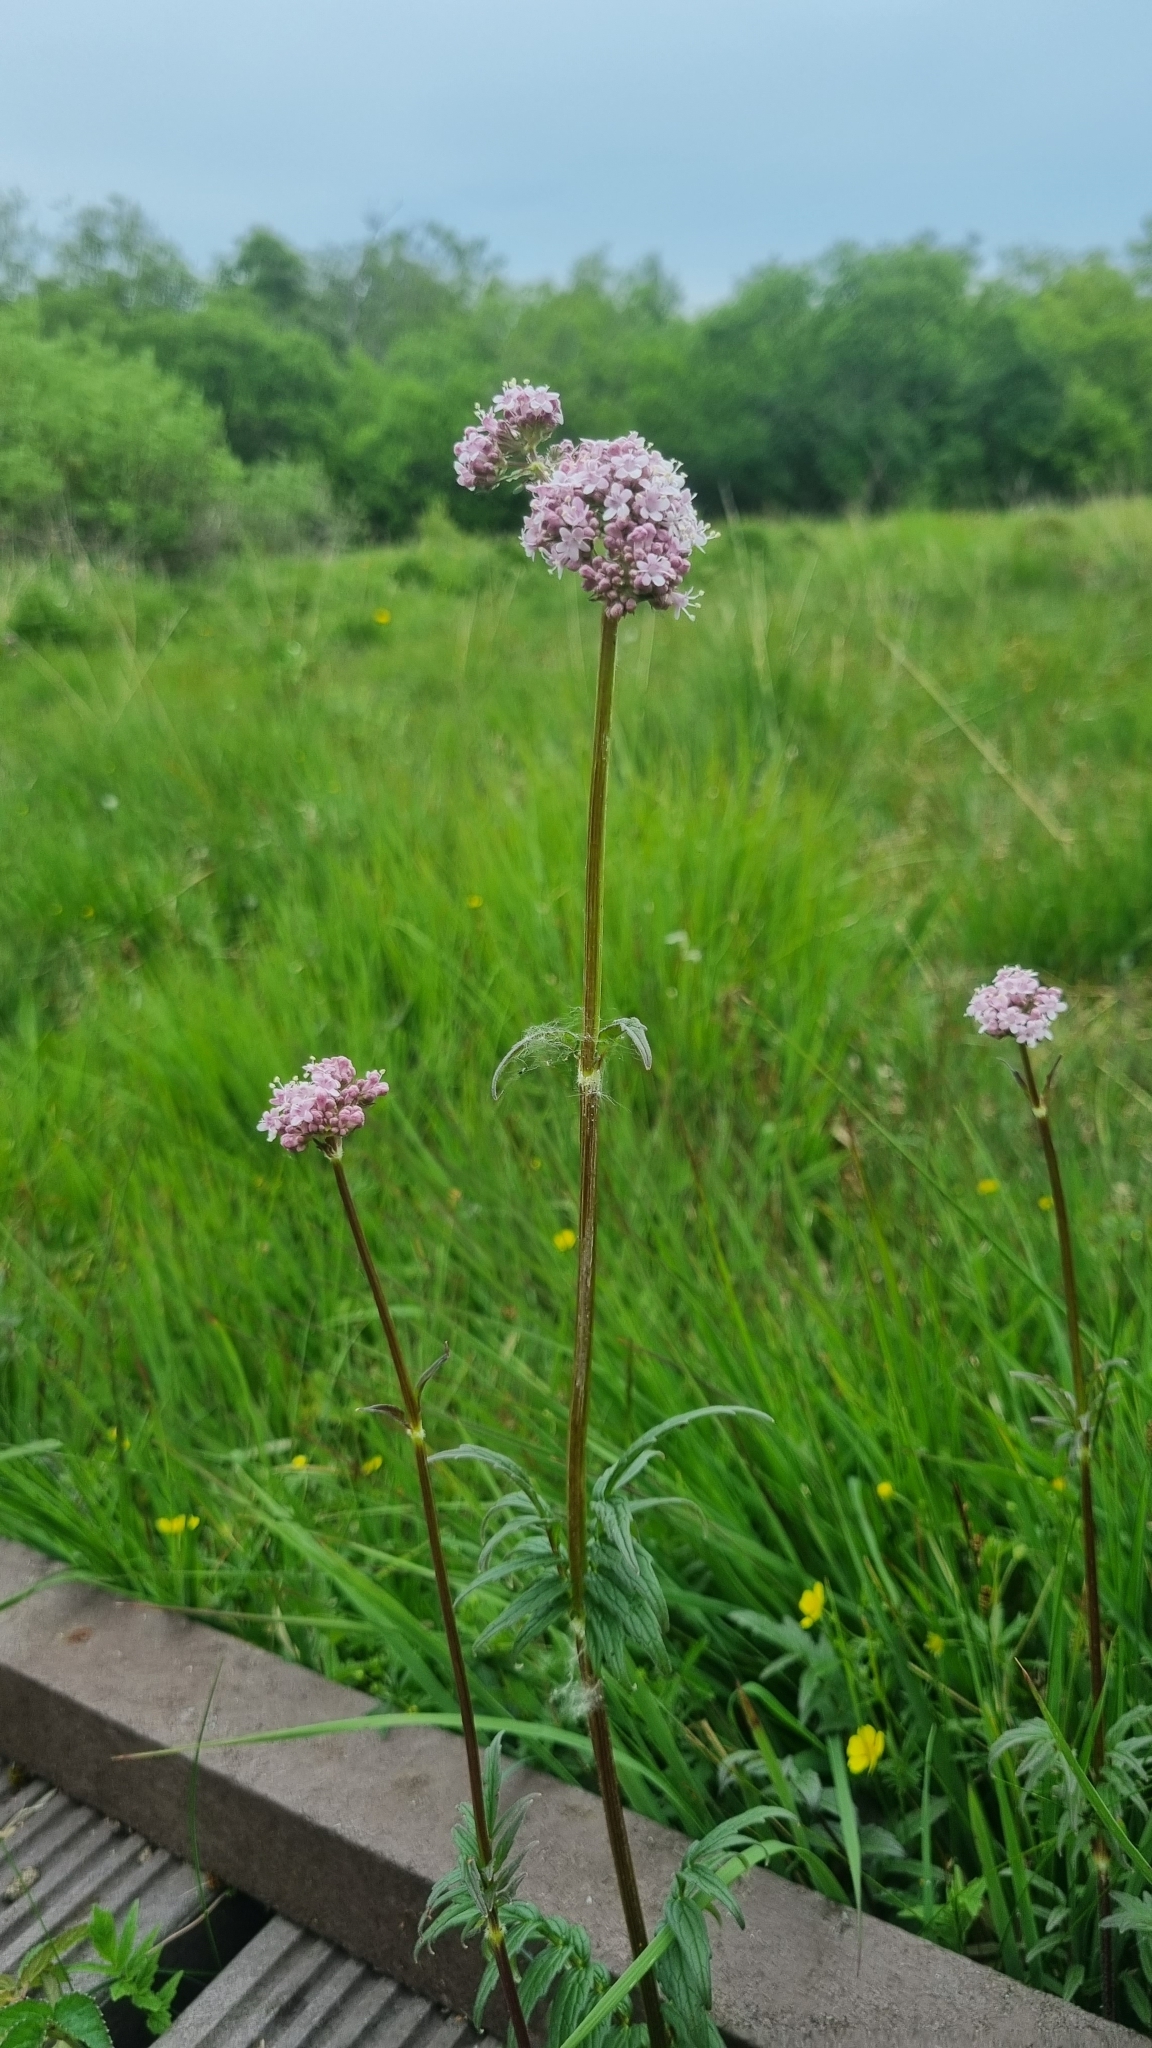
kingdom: Plantae
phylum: Tracheophyta
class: Magnoliopsida
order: Dipsacales
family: Caprifoliaceae
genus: Valeriana
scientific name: Valeriana officinalis
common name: Common valerian
